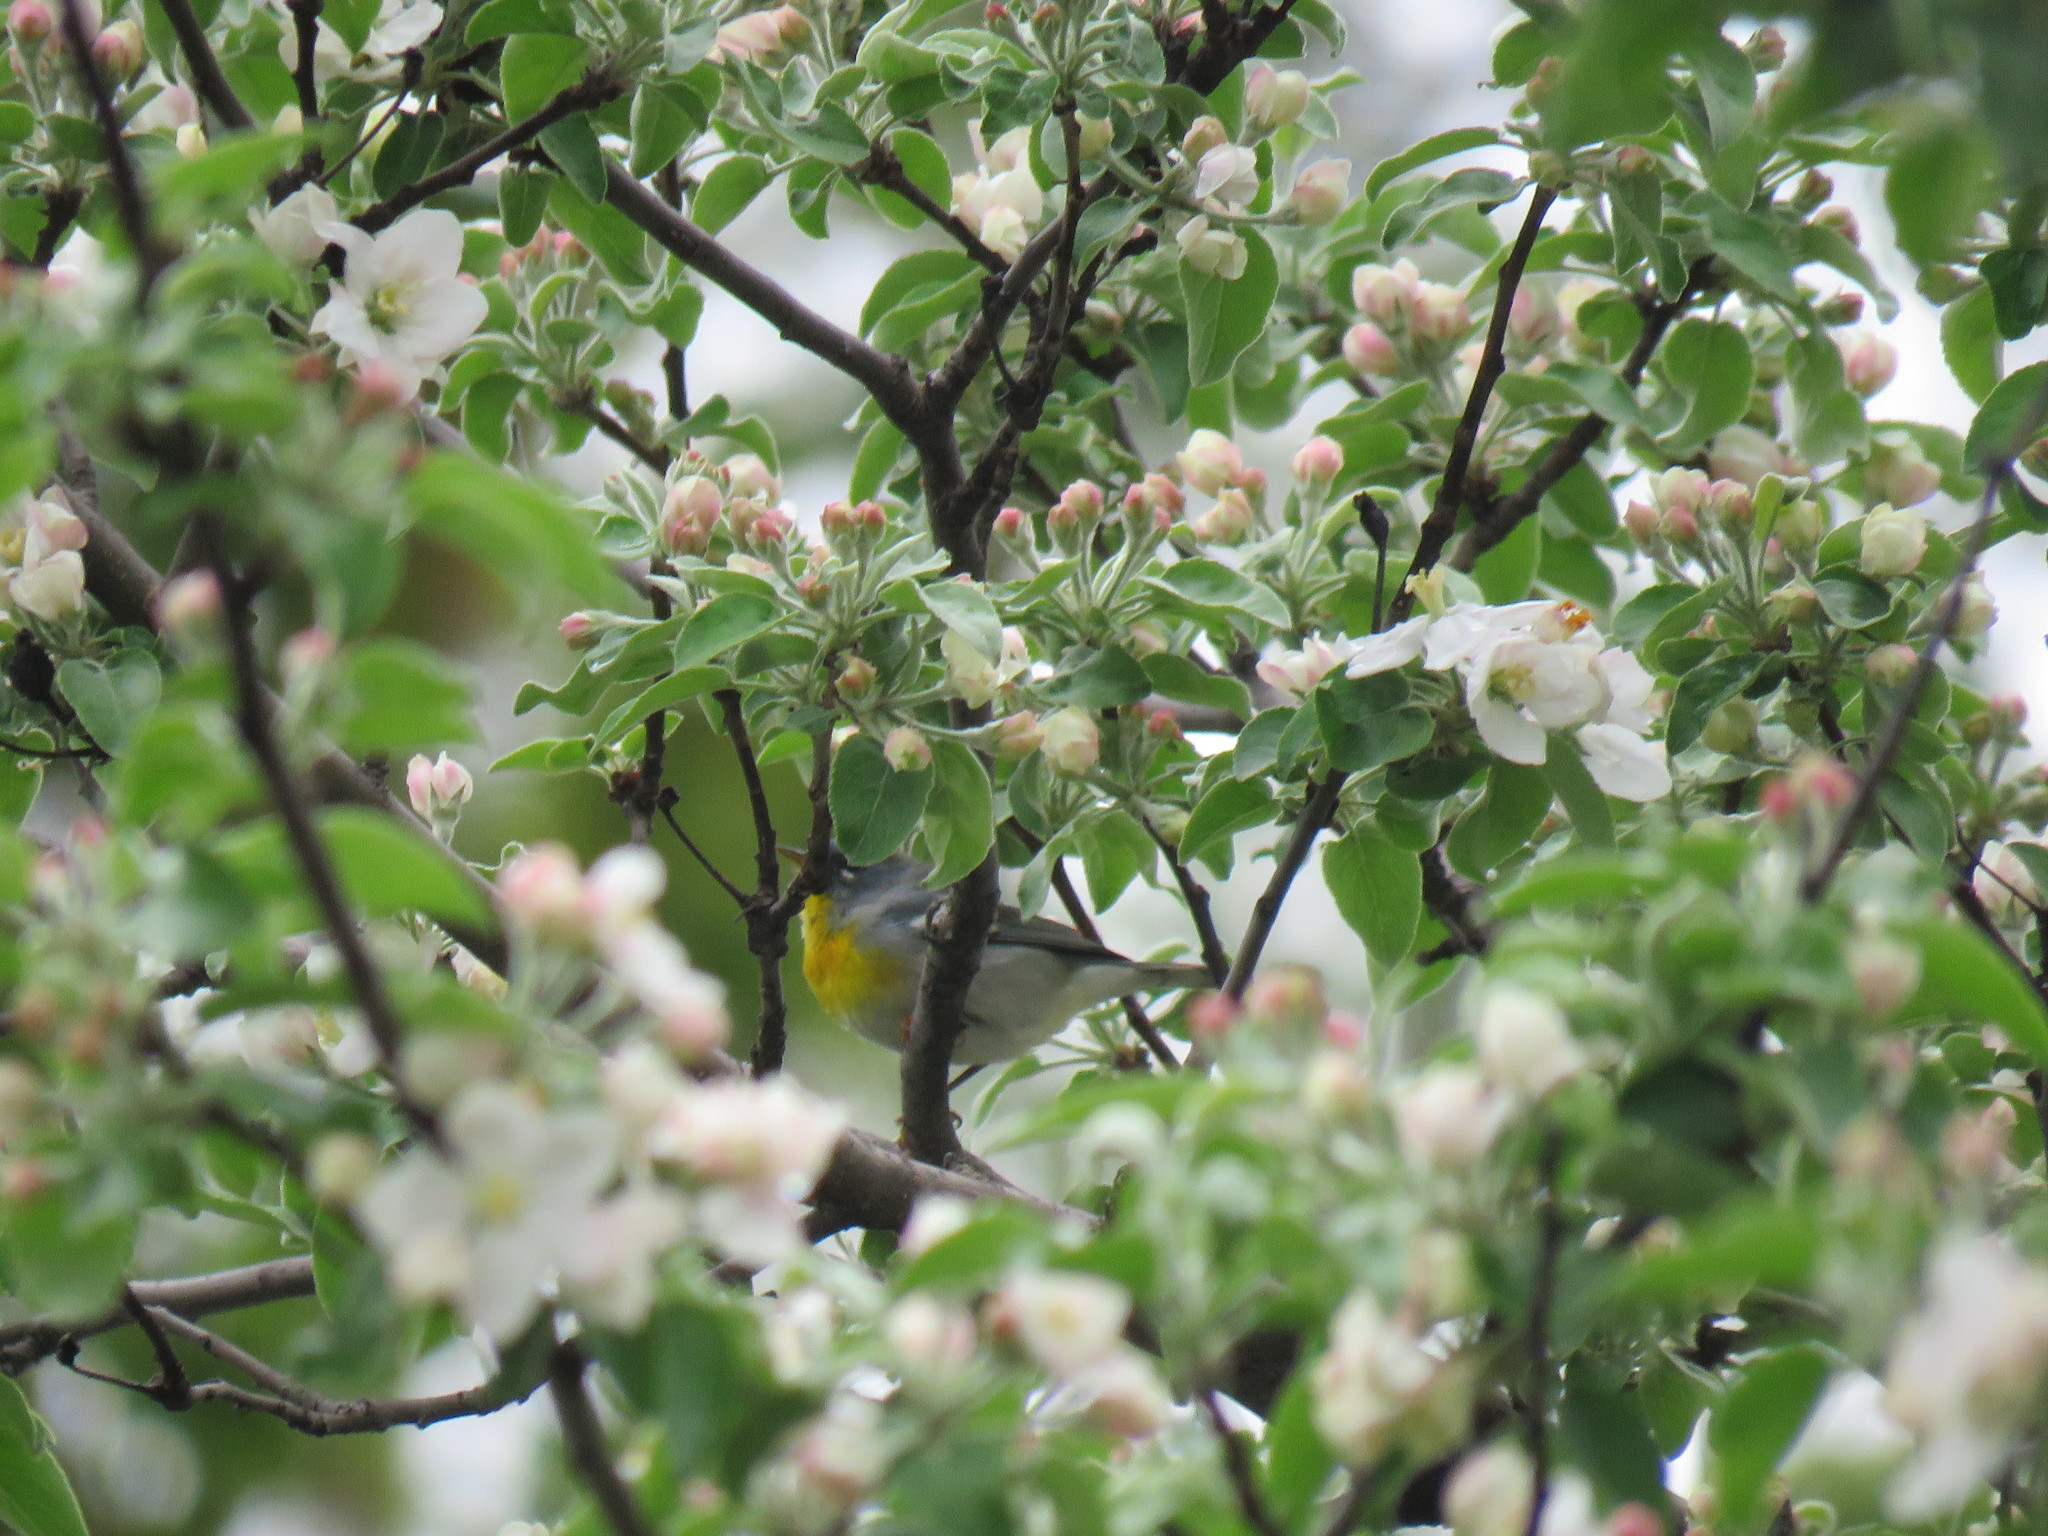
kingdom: Animalia
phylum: Chordata
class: Aves
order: Passeriformes
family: Parulidae
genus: Setophaga
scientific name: Setophaga americana
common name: Northern parula
